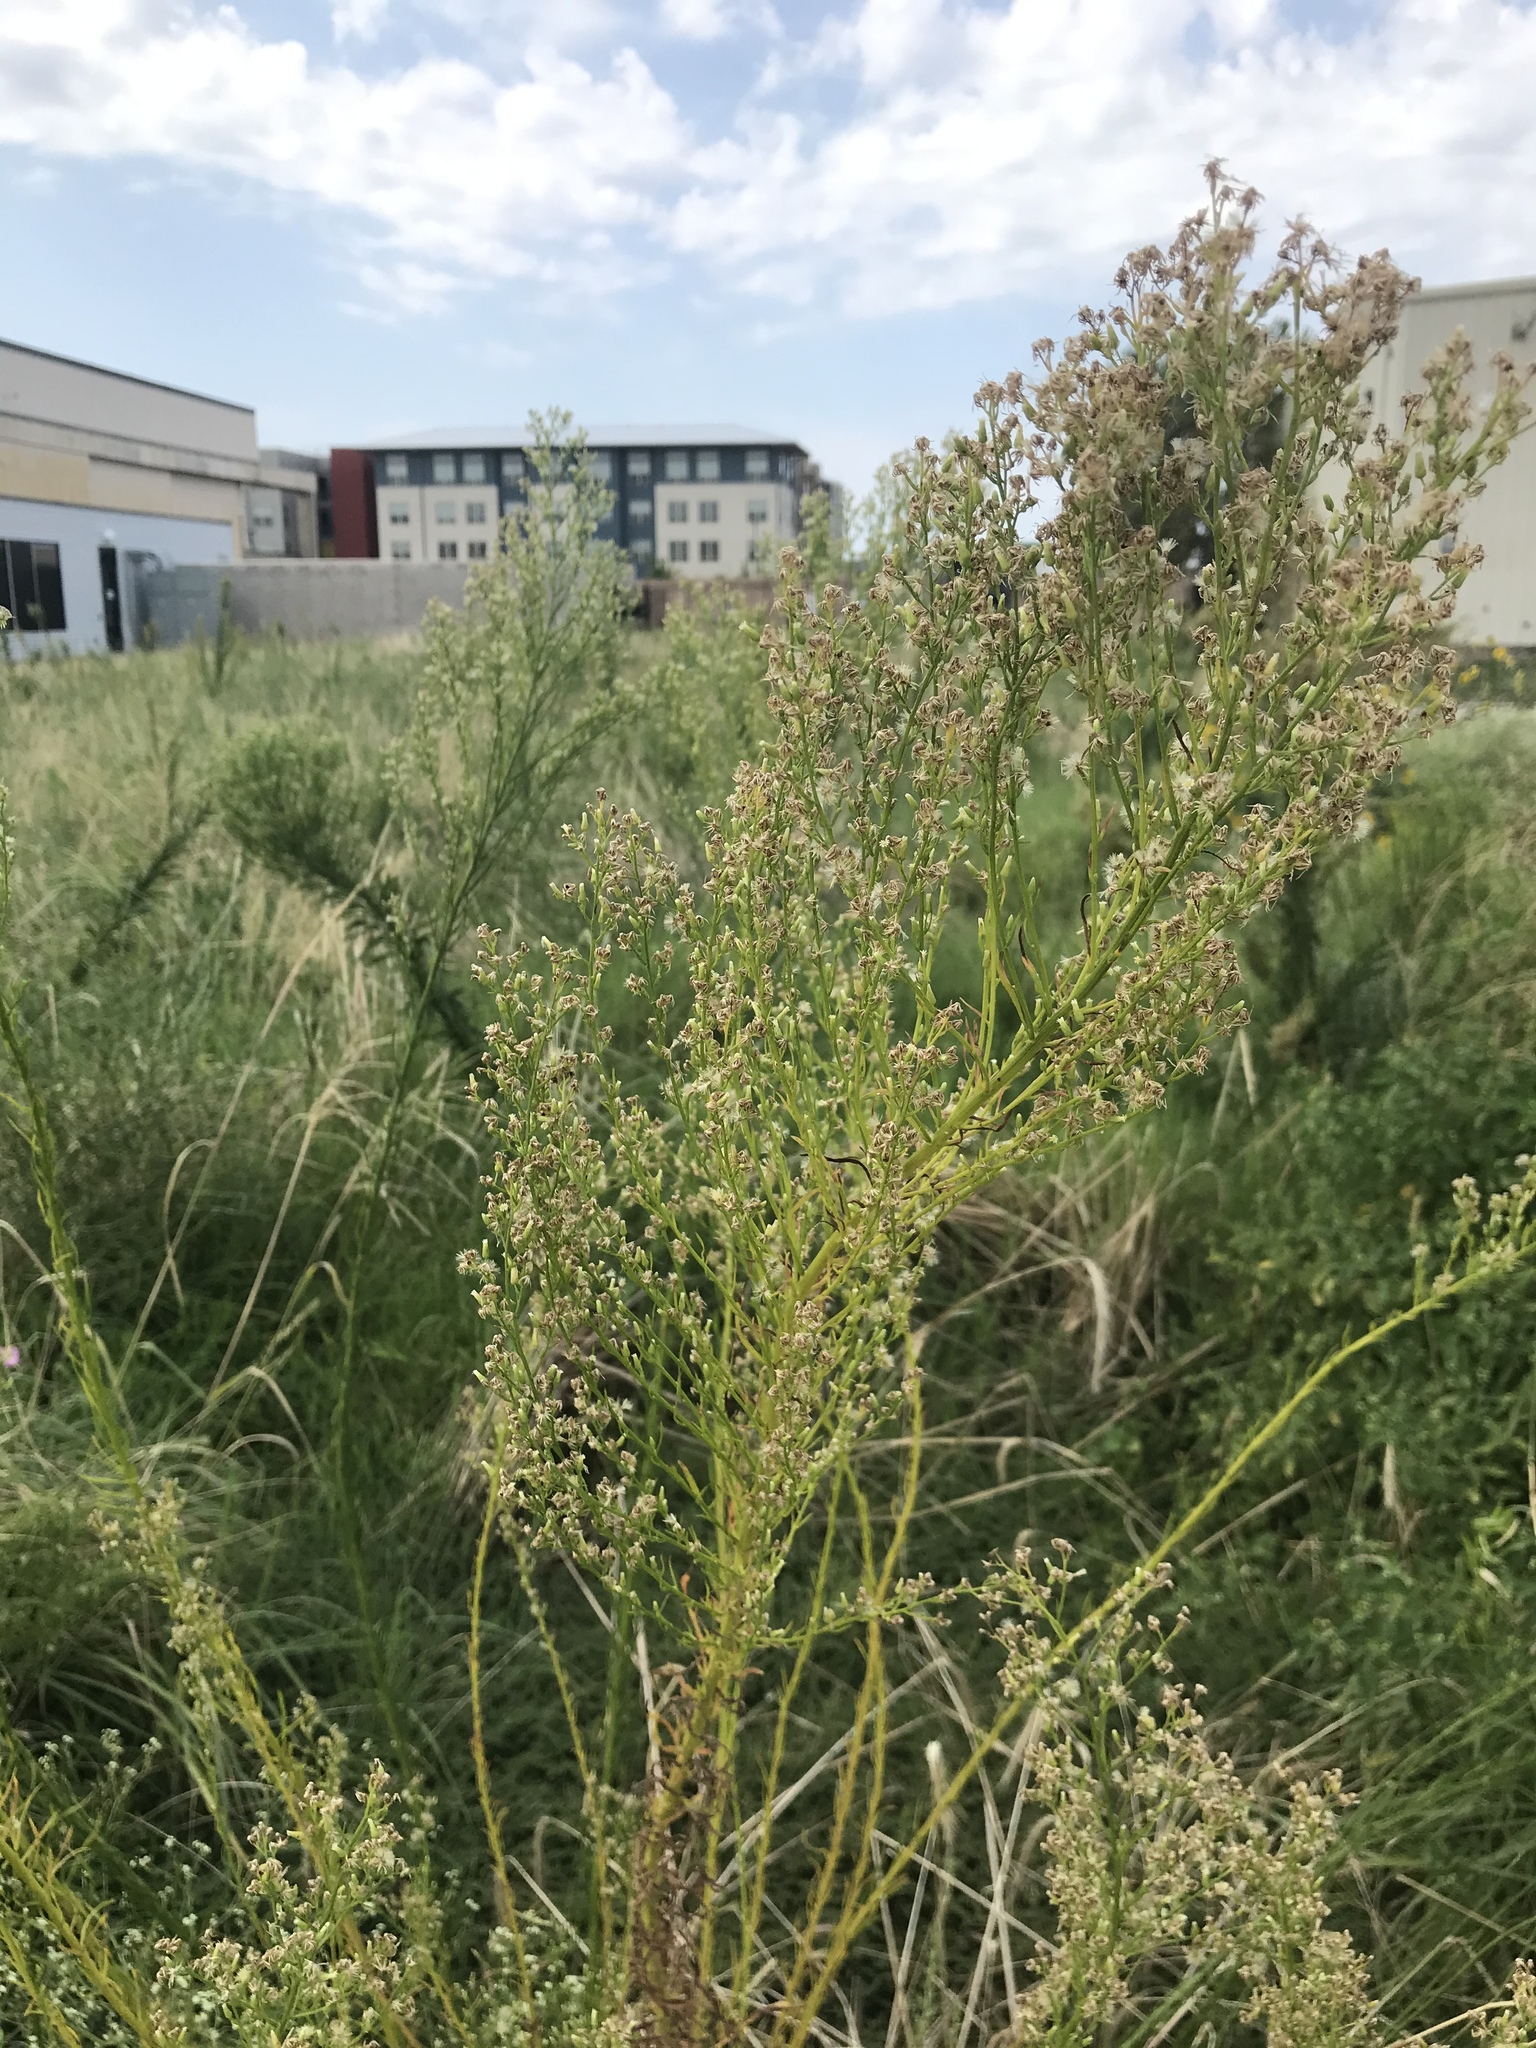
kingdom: Plantae
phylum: Tracheophyta
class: Magnoliopsida
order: Asterales
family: Asteraceae
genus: Erigeron
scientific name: Erigeron canadensis
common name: Canadian fleabane
